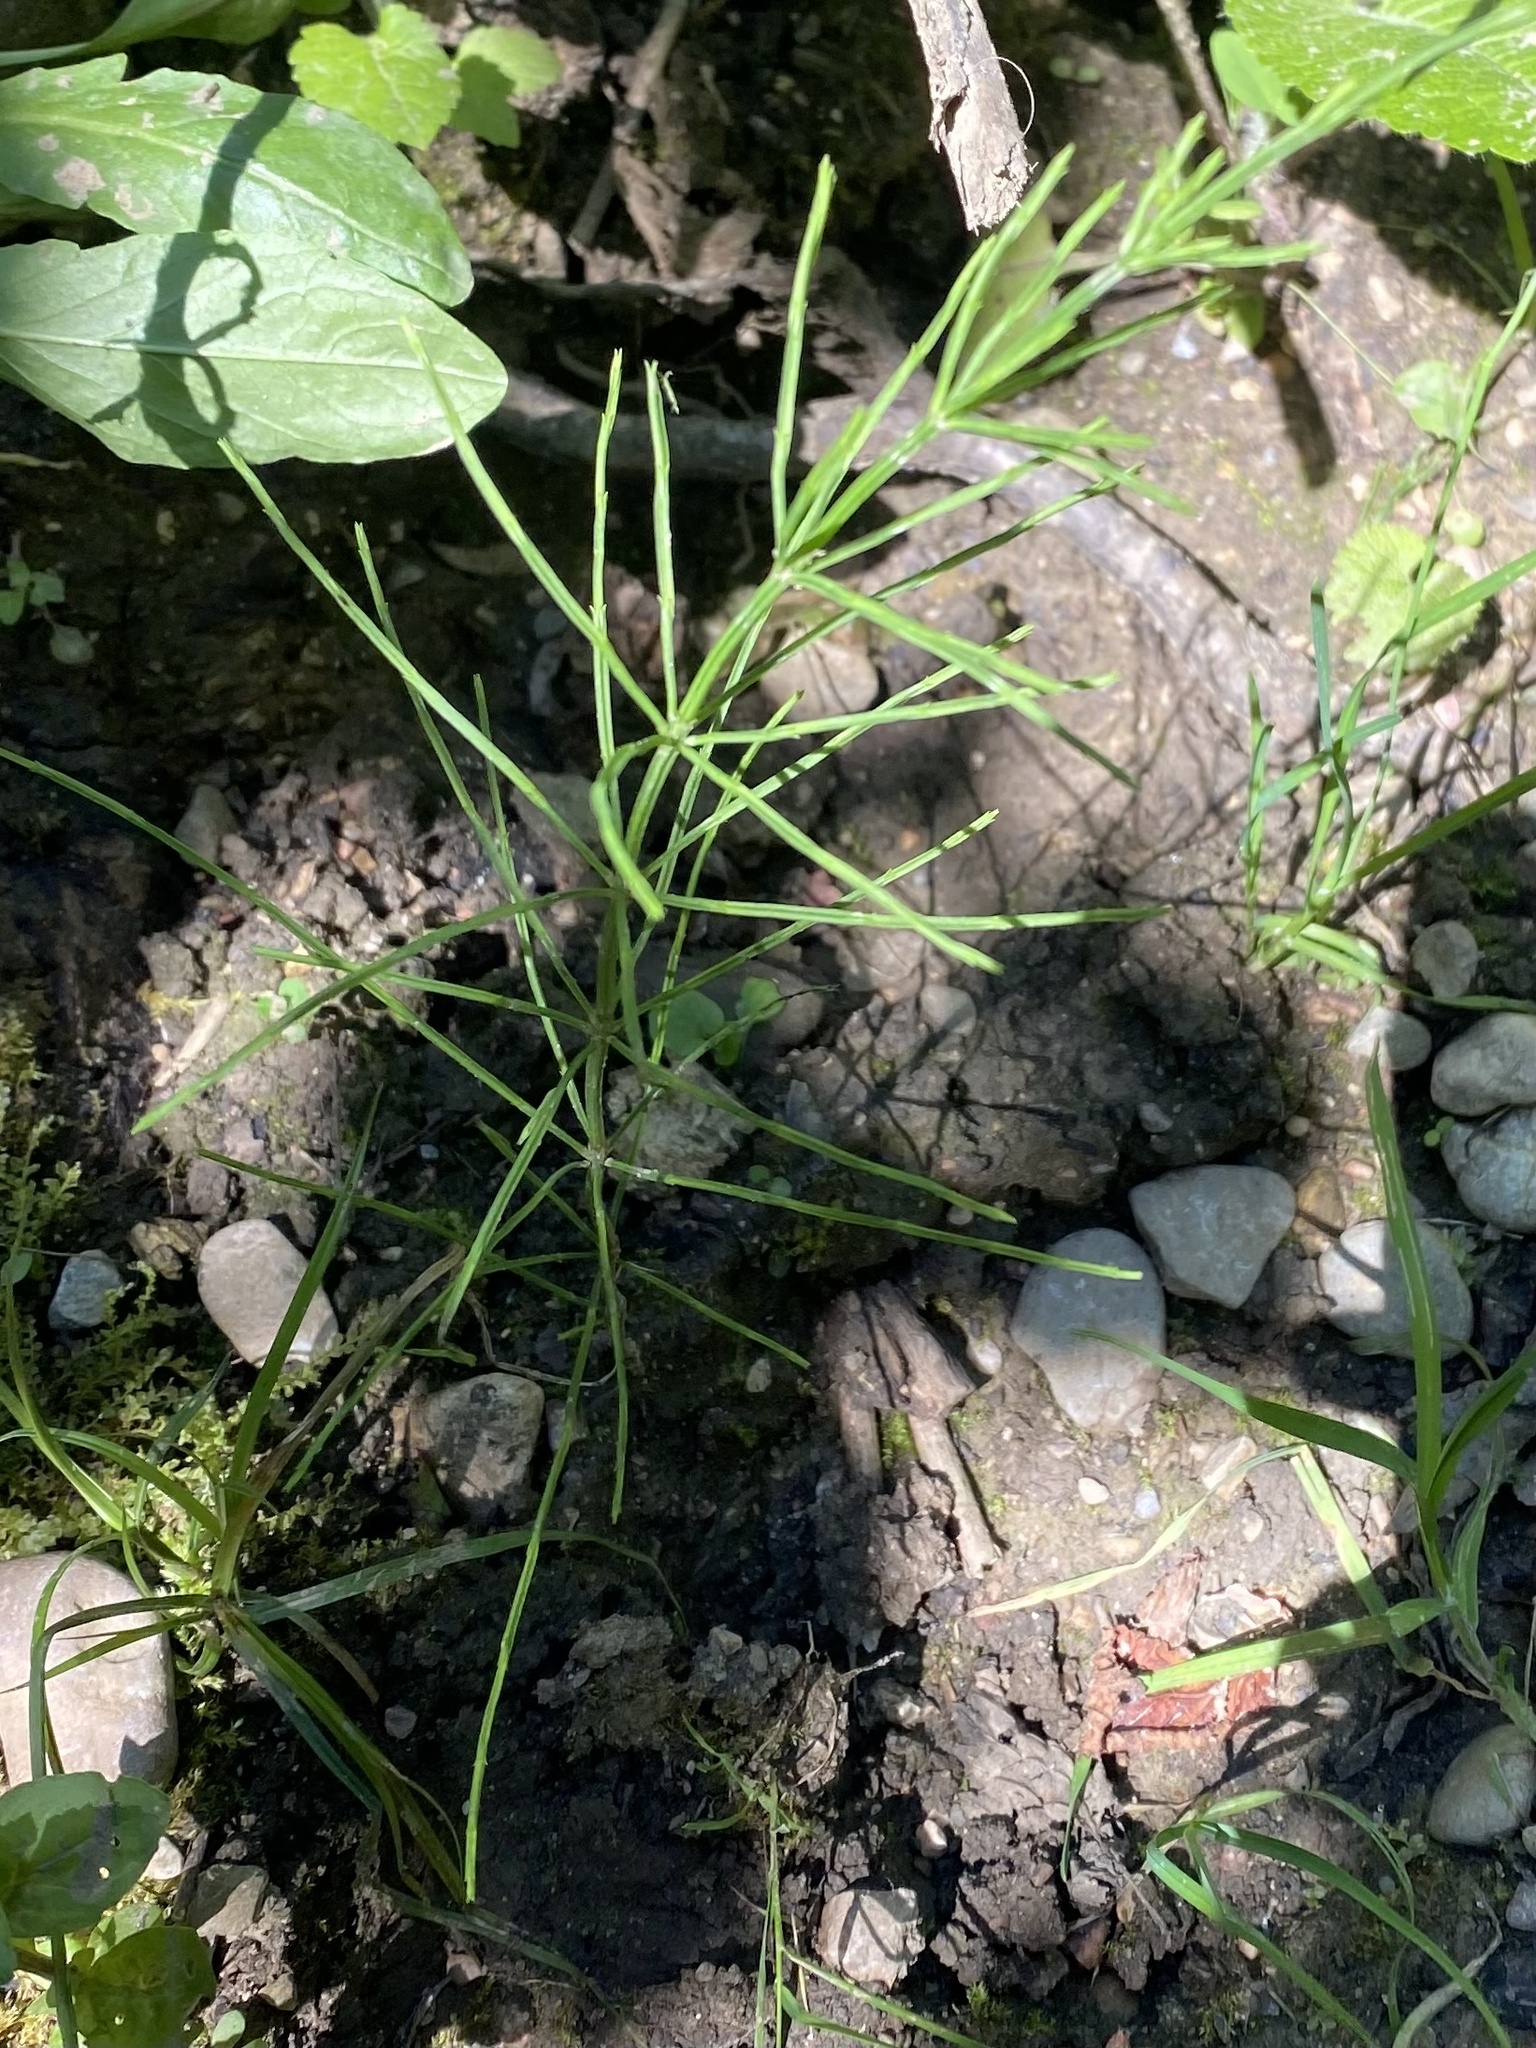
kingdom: Plantae
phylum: Tracheophyta
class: Polypodiopsida
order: Equisetales
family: Equisetaceae
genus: Equisetum
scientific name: Equisetum arvense
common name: Field horsetail
